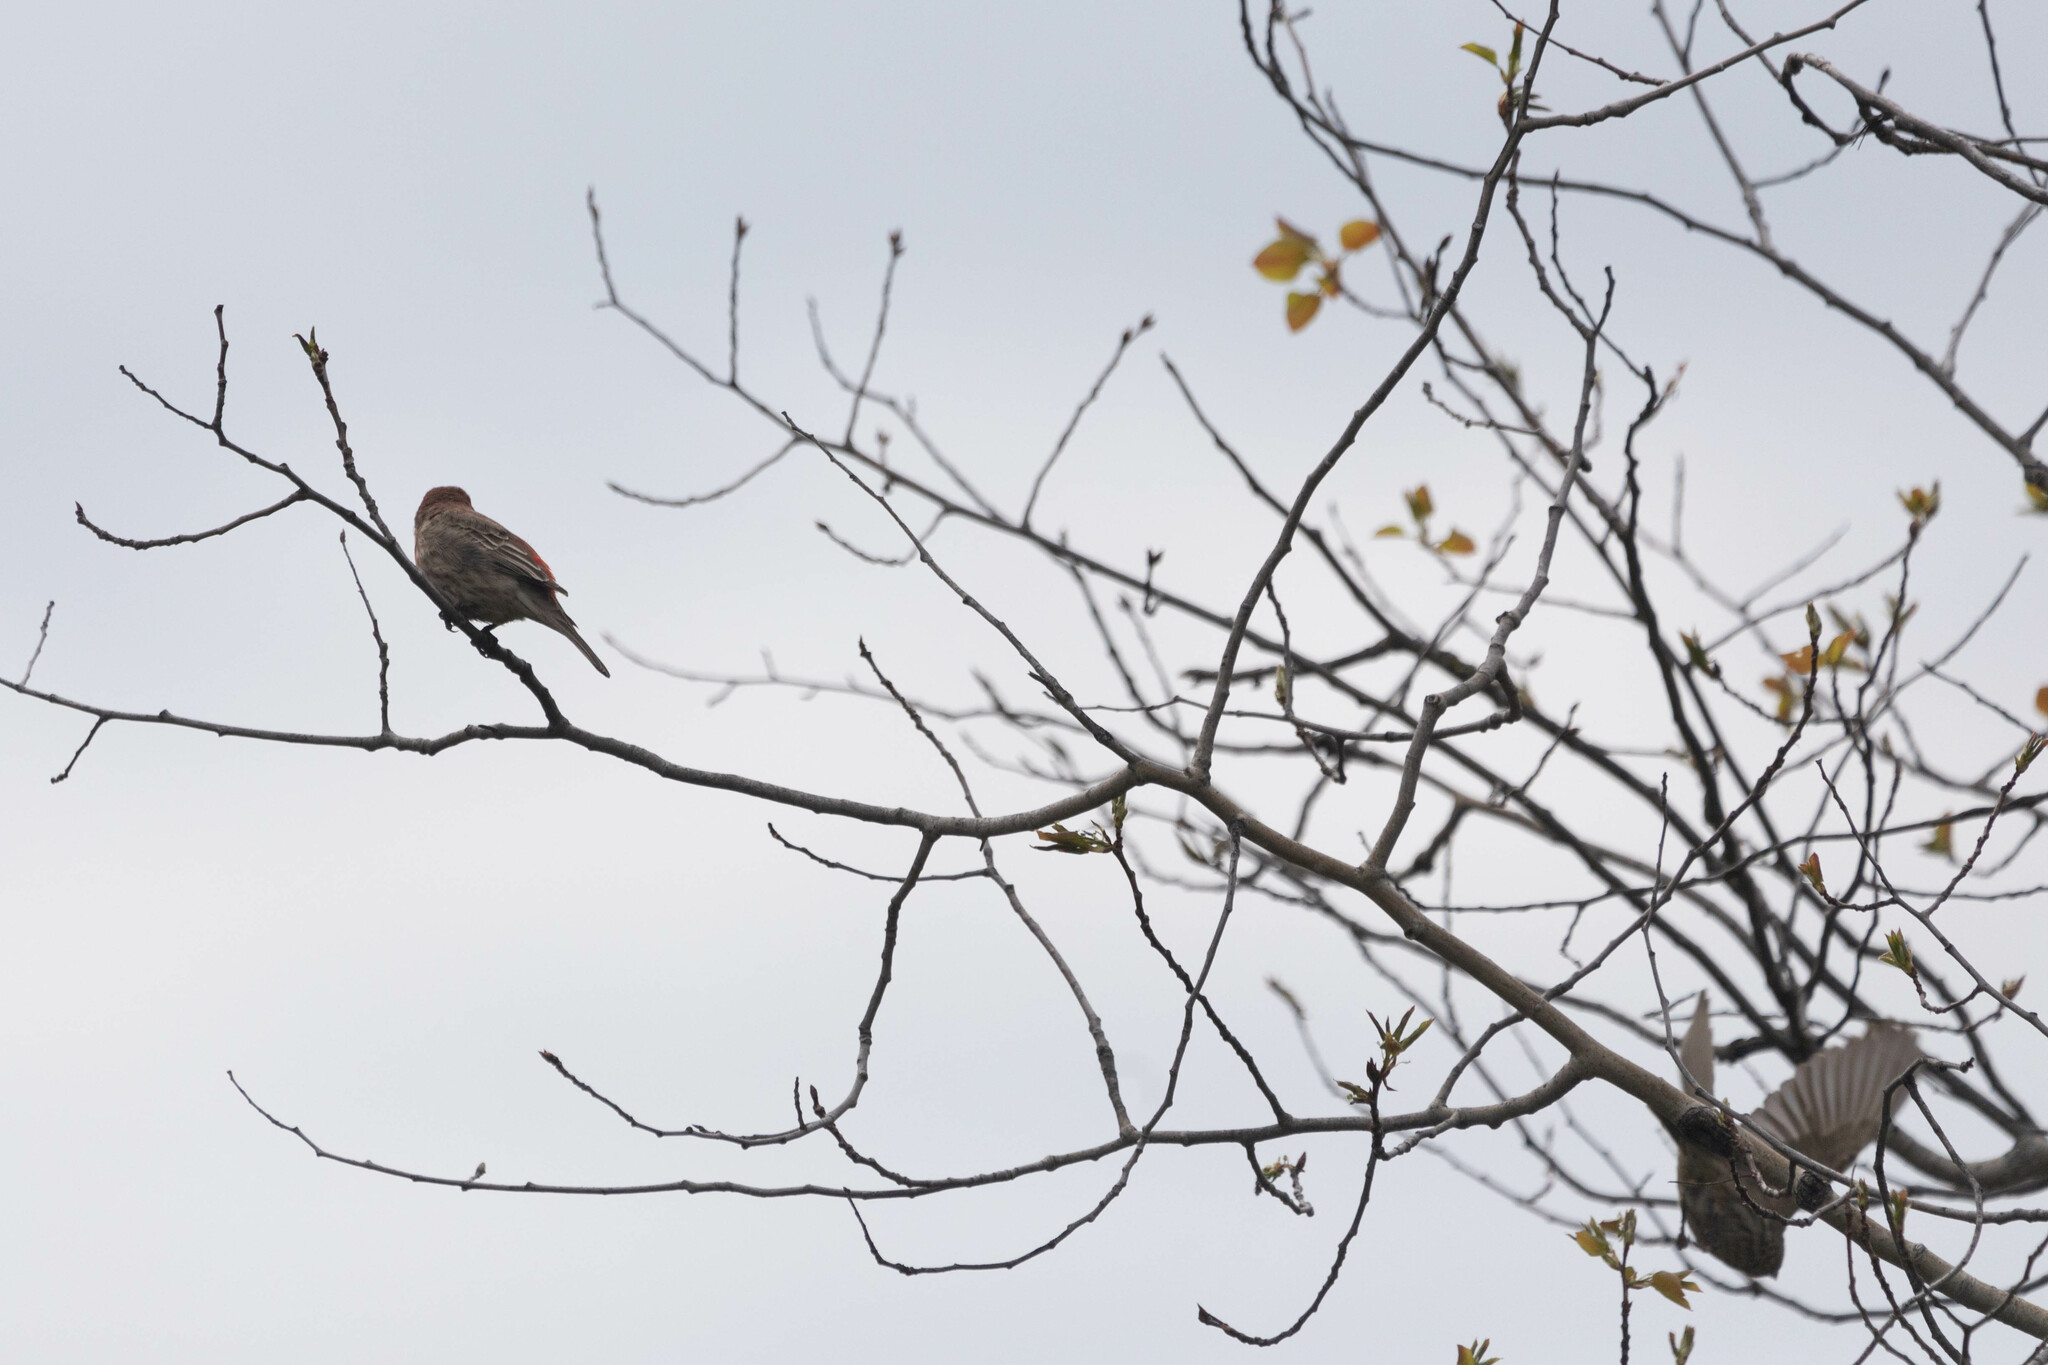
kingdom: Animalia
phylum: Chordata
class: Aves
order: Passeriformes
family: Fringillidae
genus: Haemorhous
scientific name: Haemorhous mexicanus
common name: House finch
